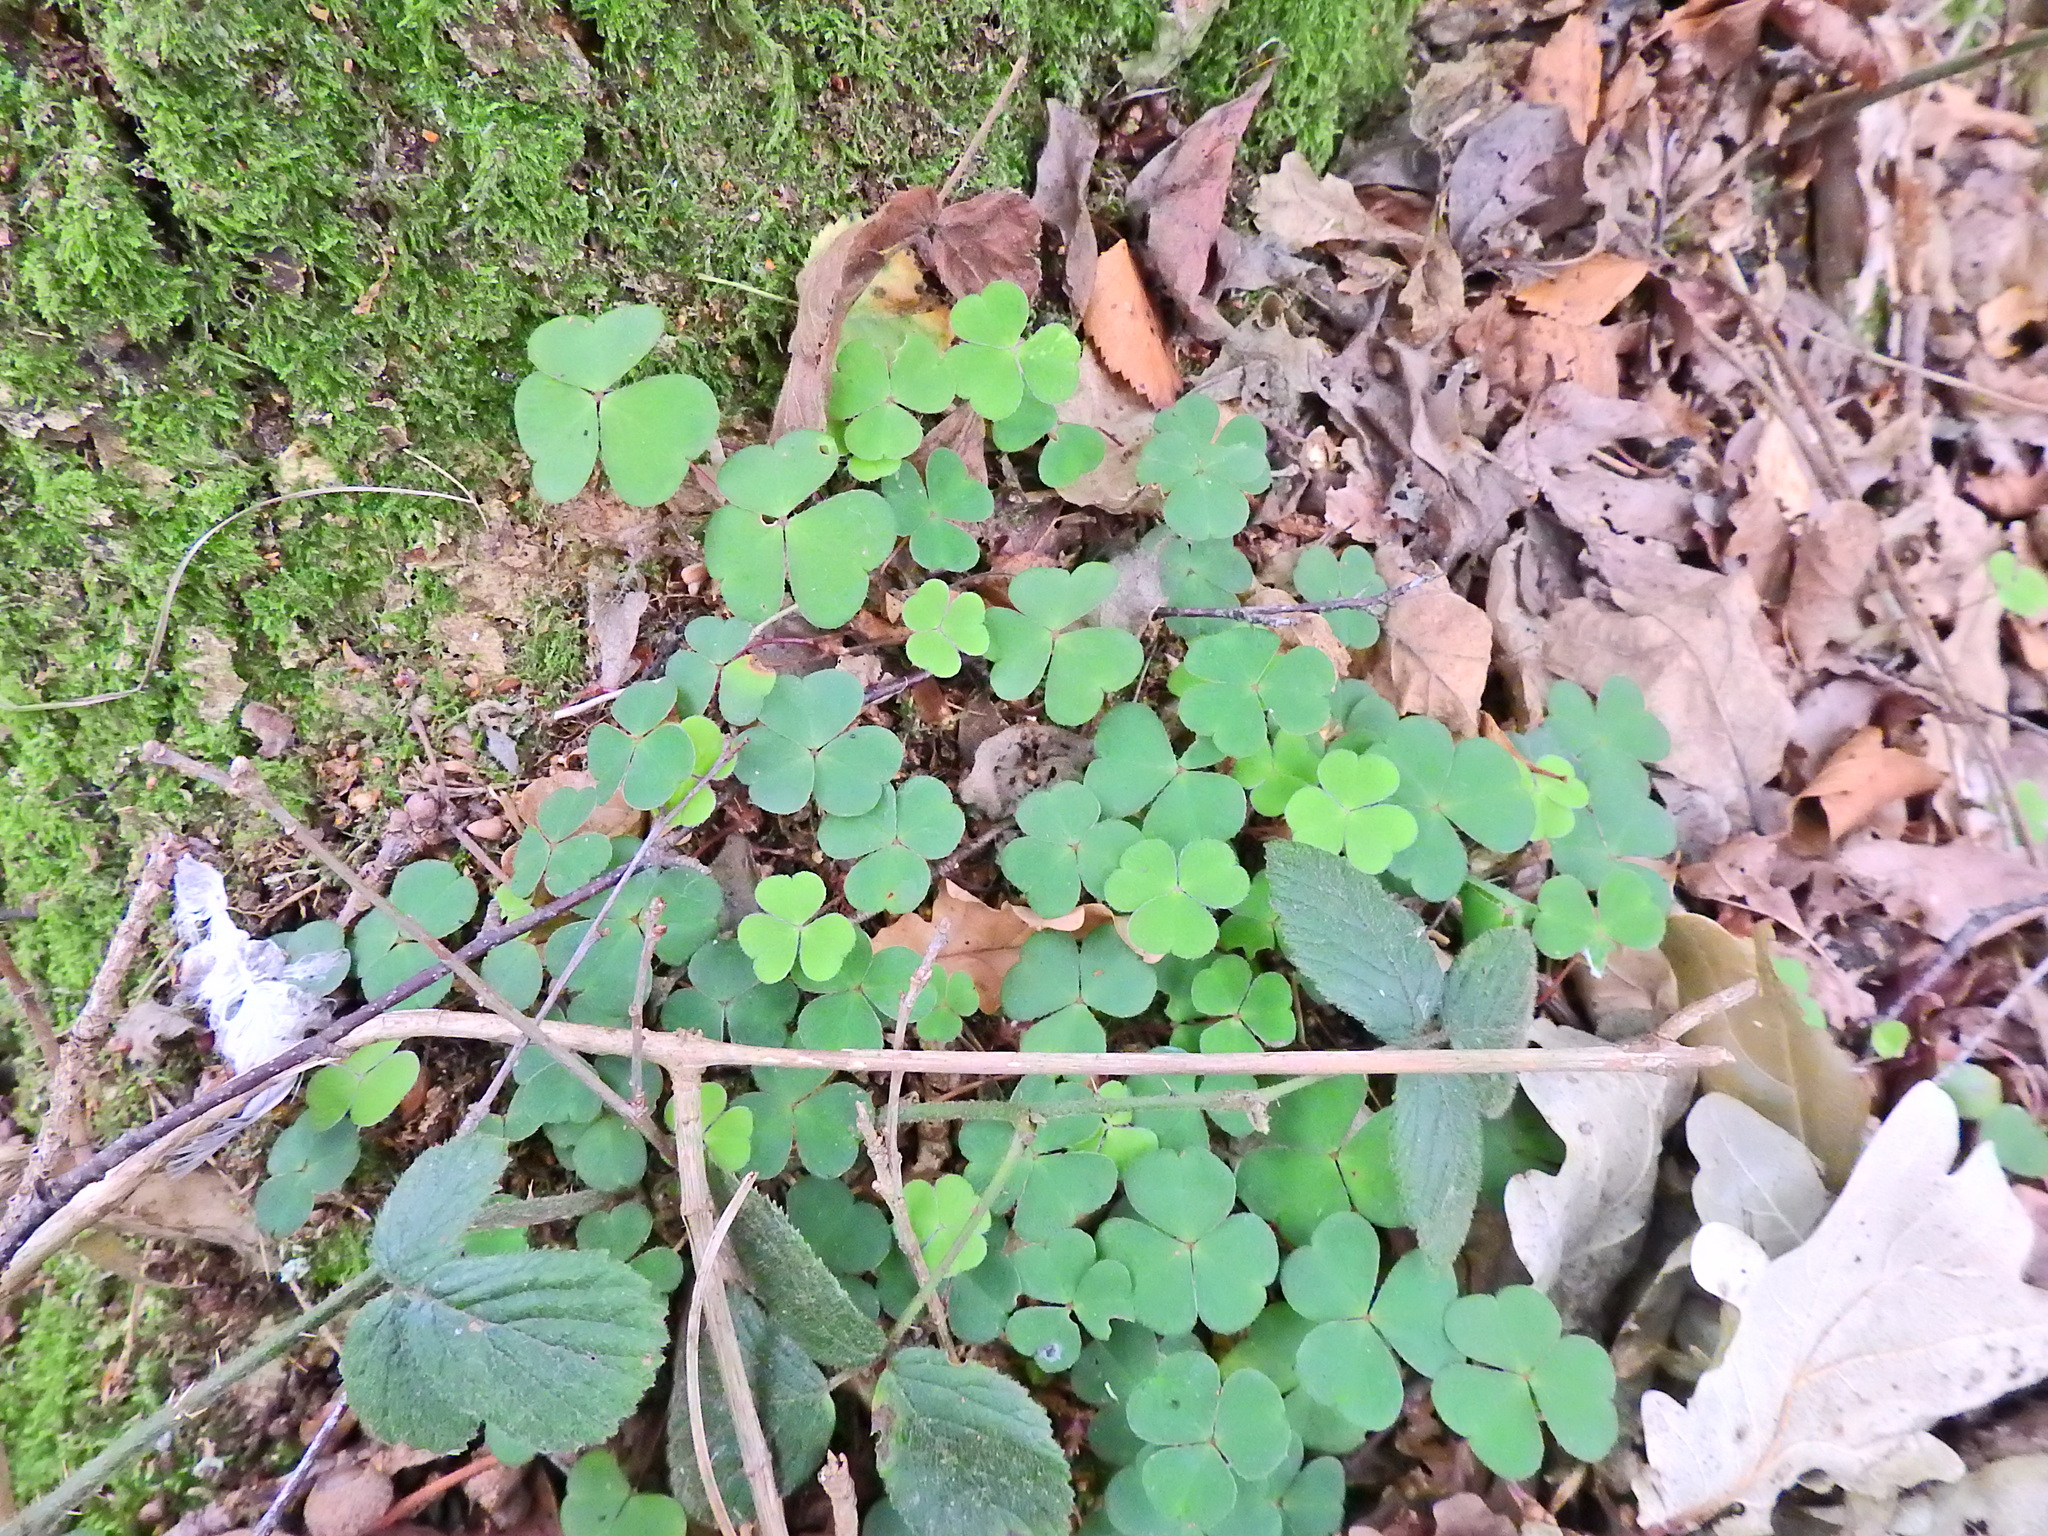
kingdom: Plantae
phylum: Tracheophyta
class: Magnoliopsida
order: Oxalidales
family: Oxalidaceae
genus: Oxalis
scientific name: Oxalis acetosella
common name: Wood-sorrel
